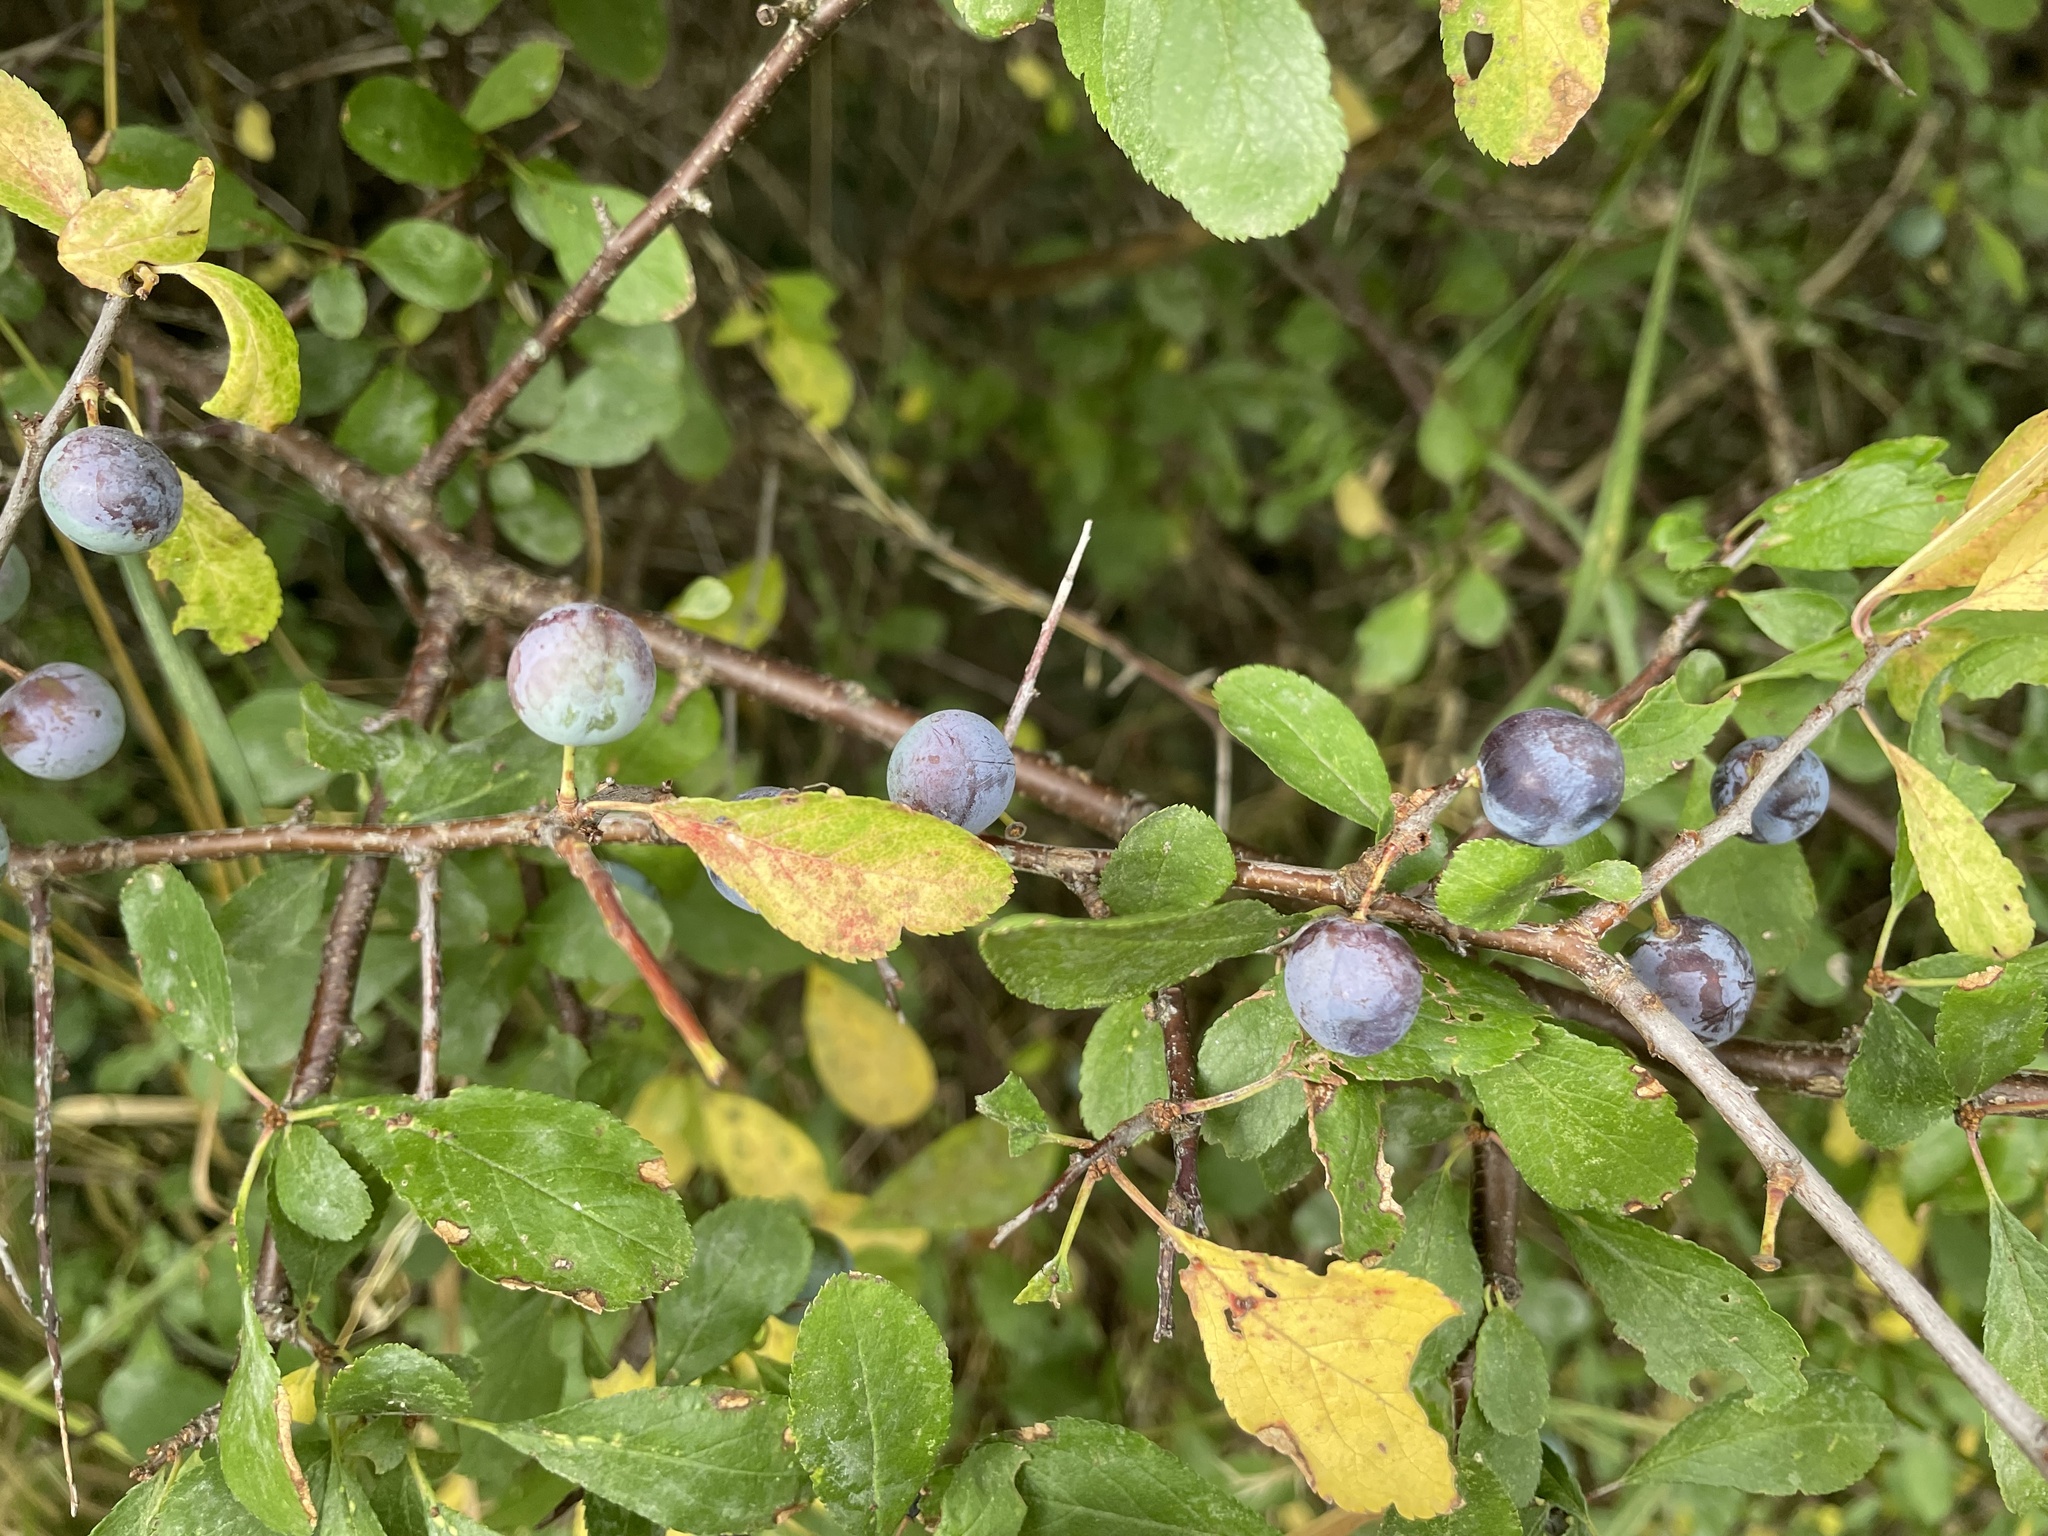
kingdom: Plantae
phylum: Tracheophyta
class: Magnoliopsida
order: Rosales
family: Rosaceae
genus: Prunus
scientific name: Prunus spinosa
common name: Blackthorn
